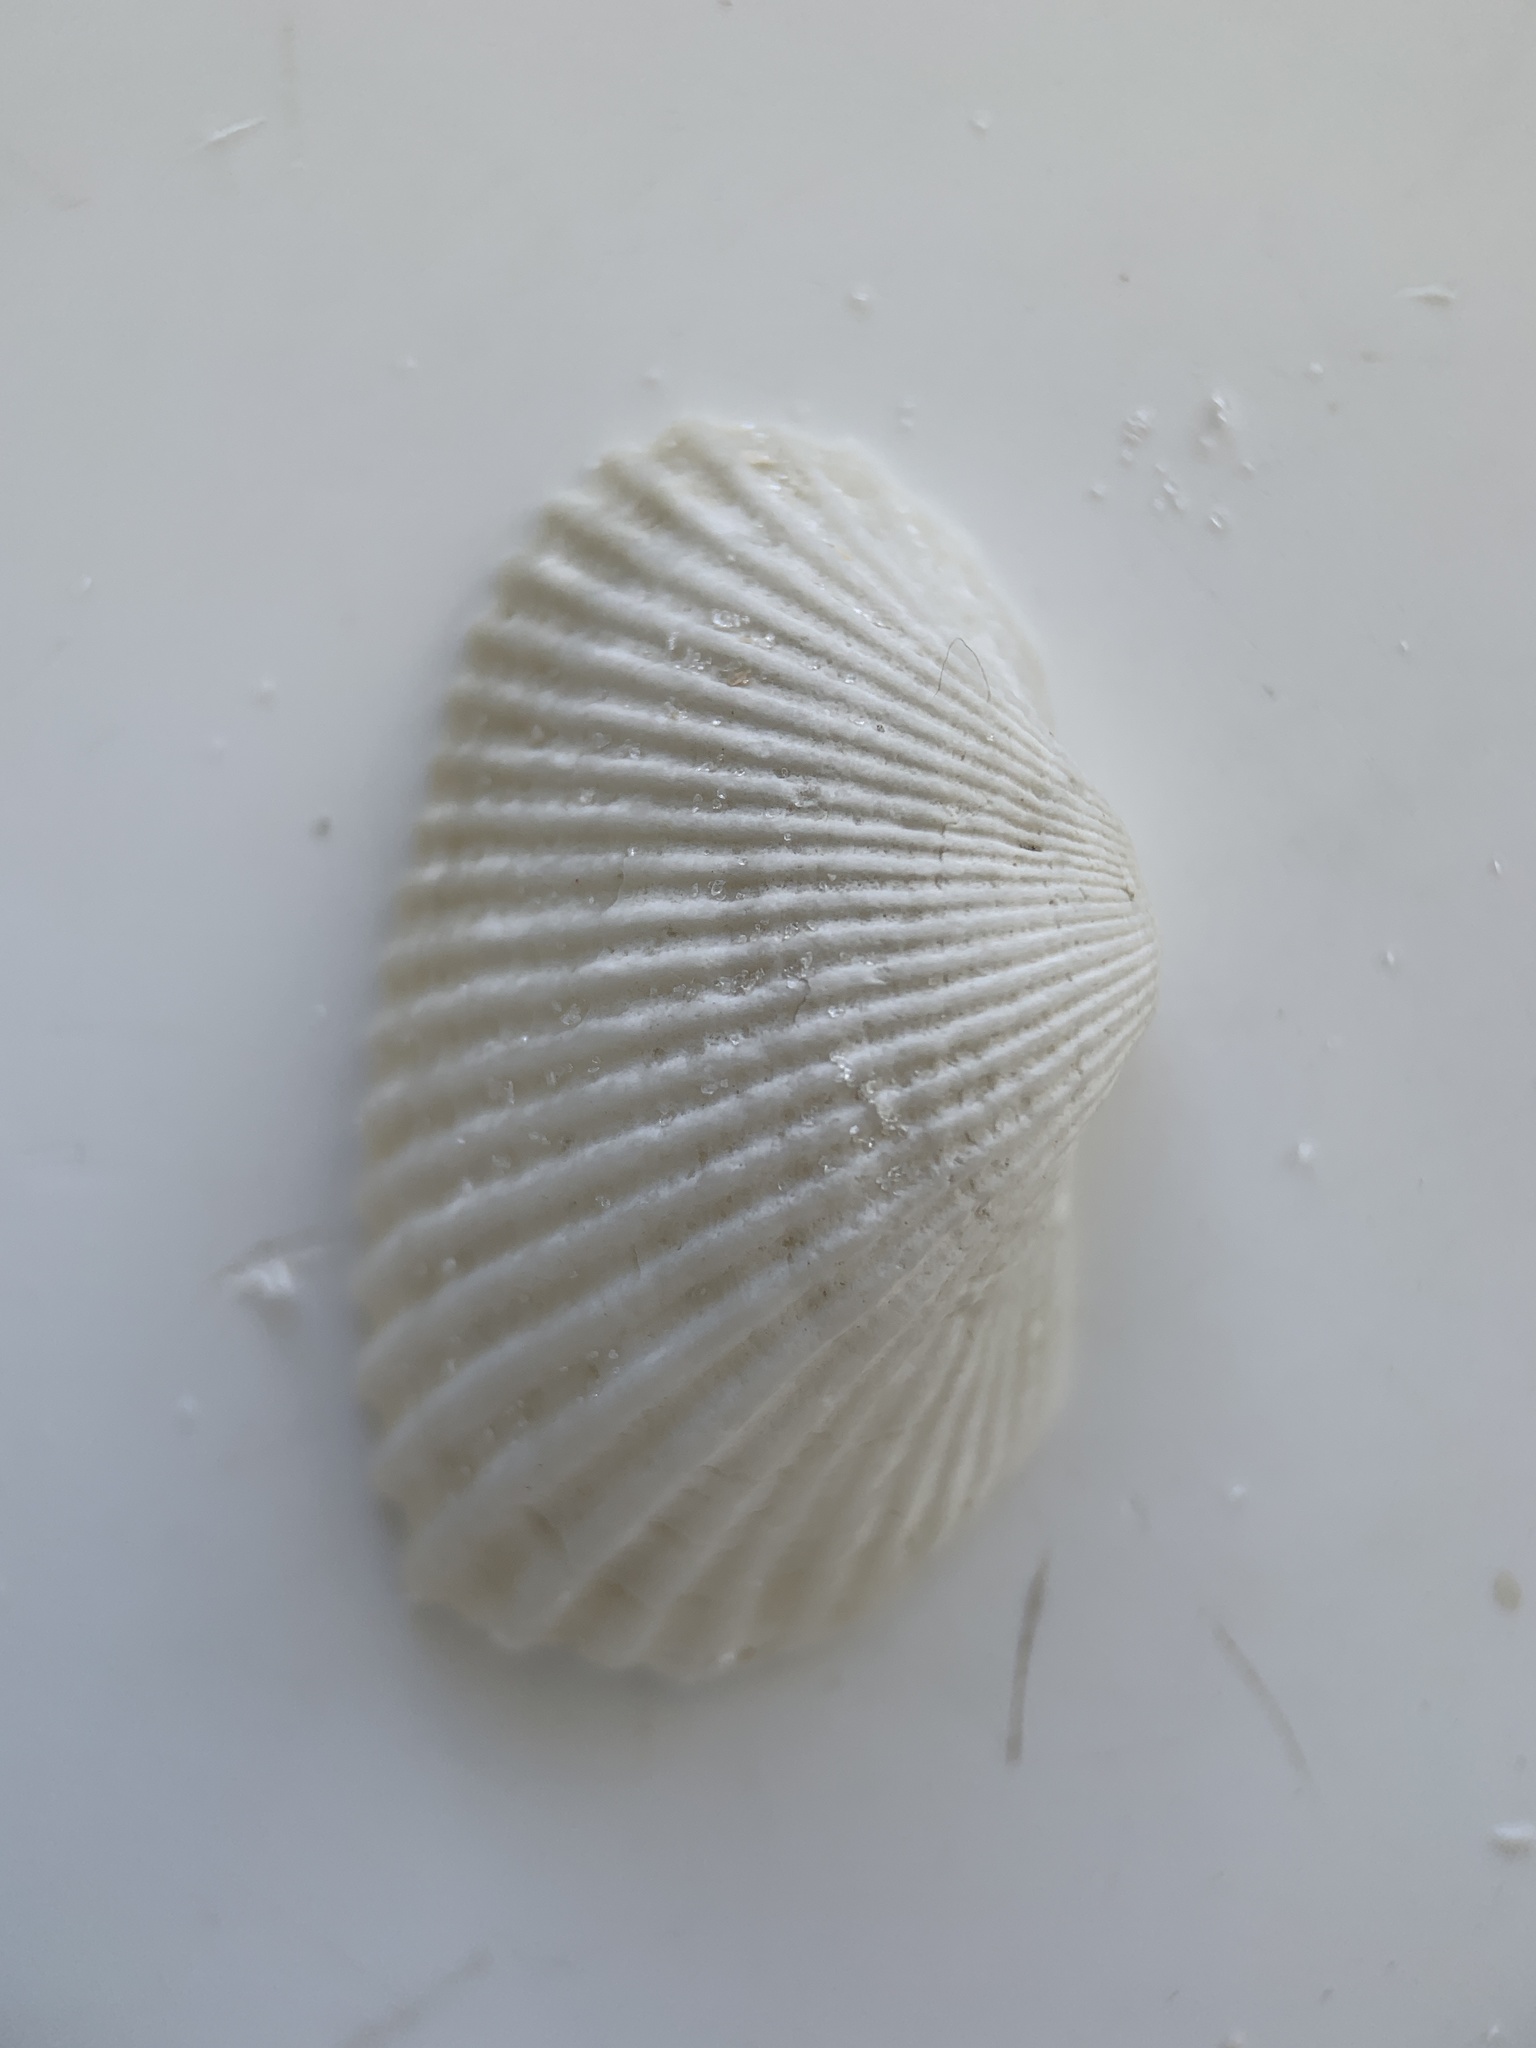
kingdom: Animalia
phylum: Mollusca
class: Bivalvia
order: Arcida
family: Arcidae
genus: Anadara
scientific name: Anadara transversa
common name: Transverse ark
